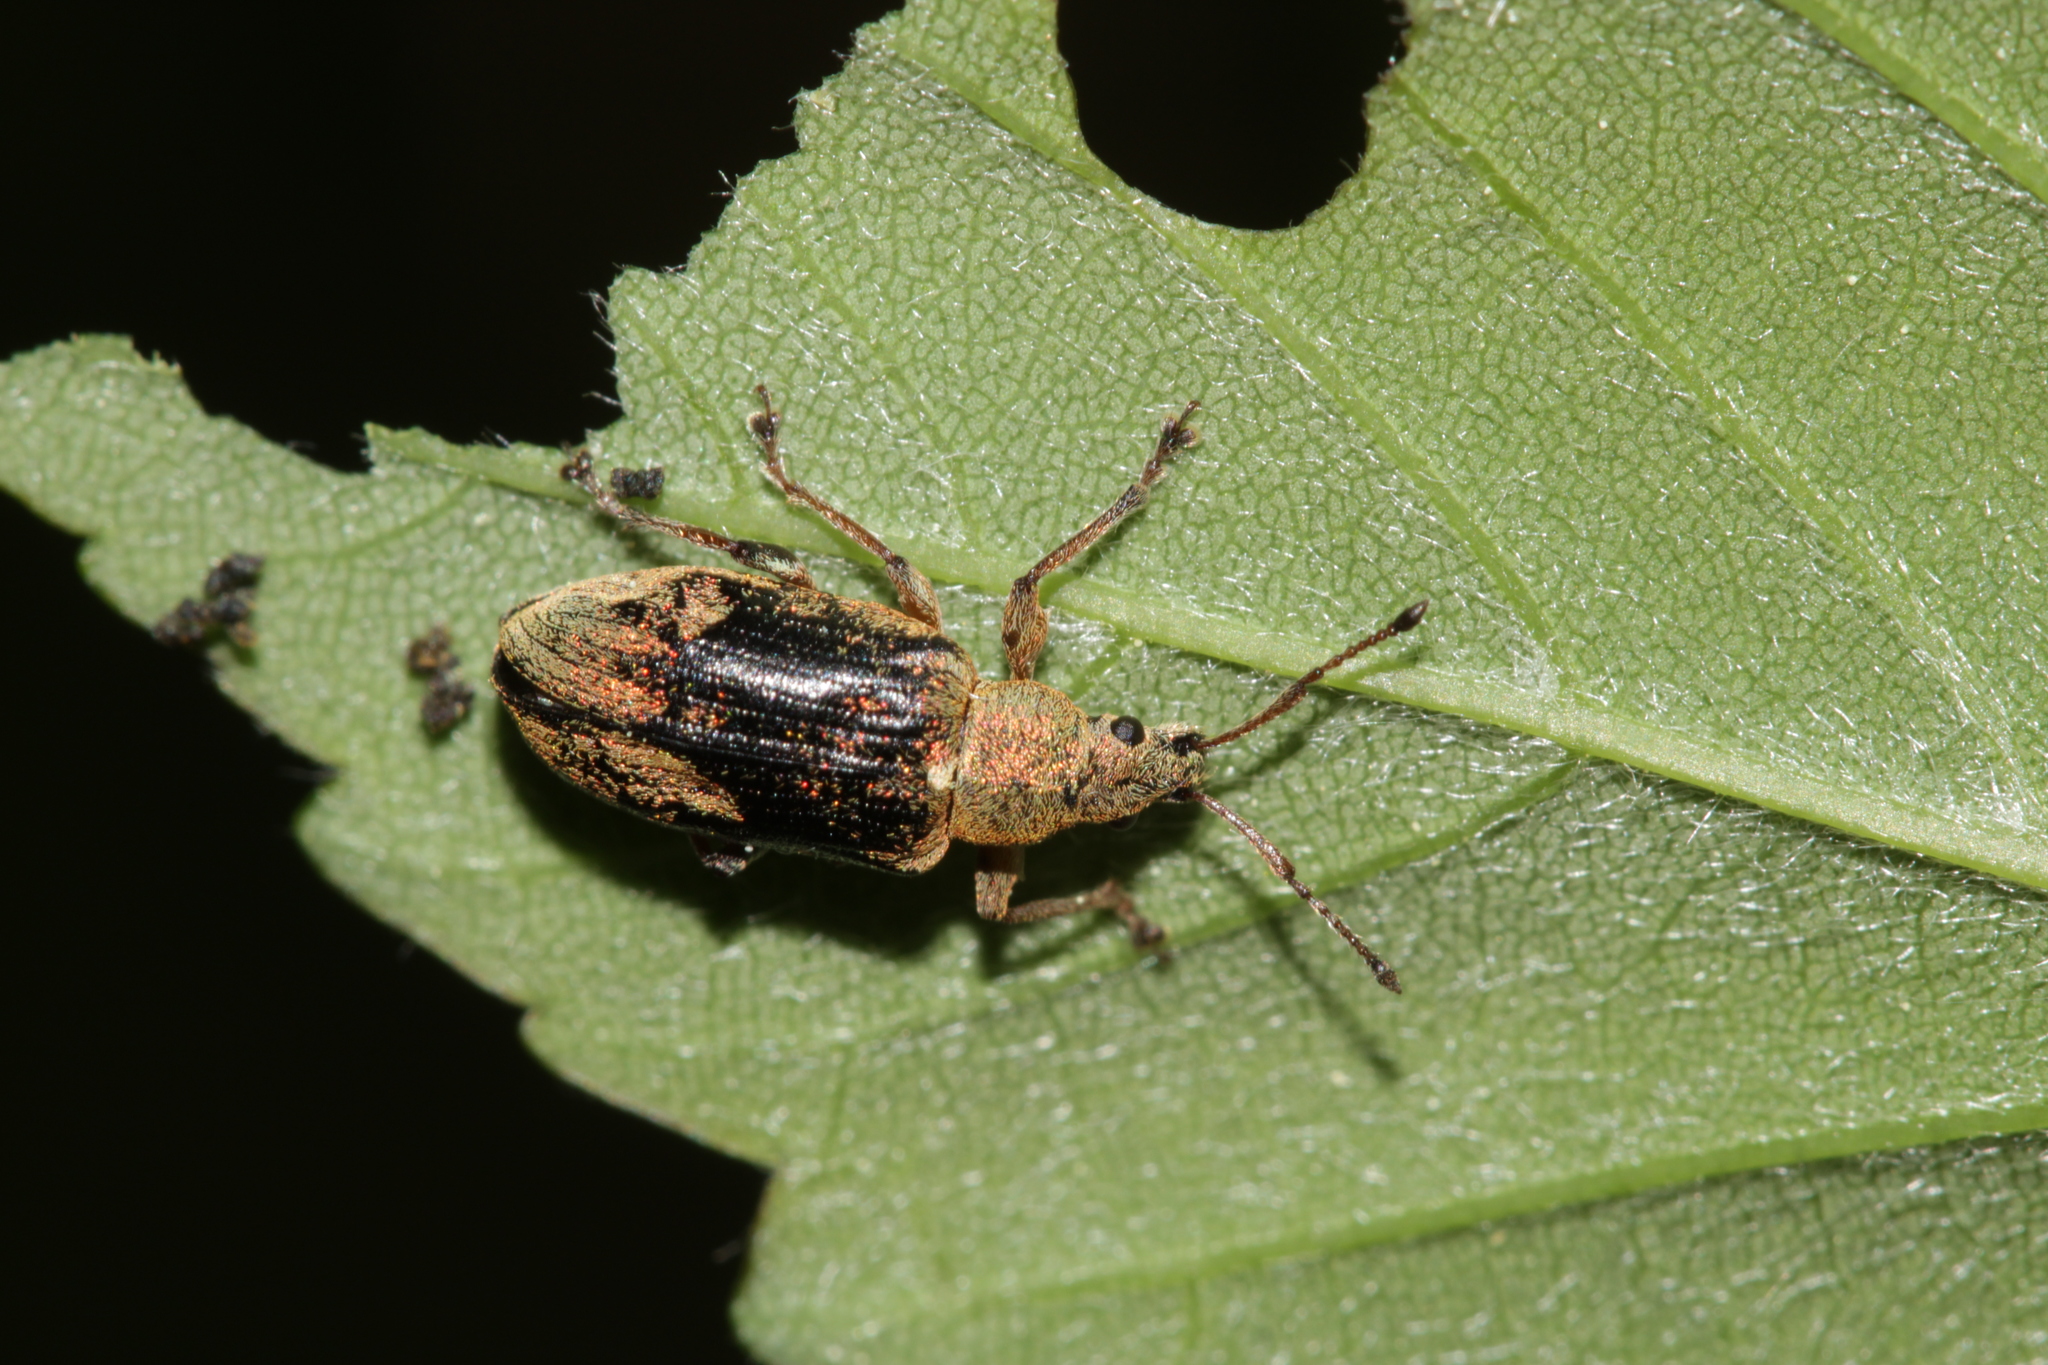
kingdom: Animalia
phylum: Arthropoda
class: Insecta
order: Coleoptera
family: Curculionidae
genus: Phyllobius
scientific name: Phyllobius pyri
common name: Common leaf weevil
